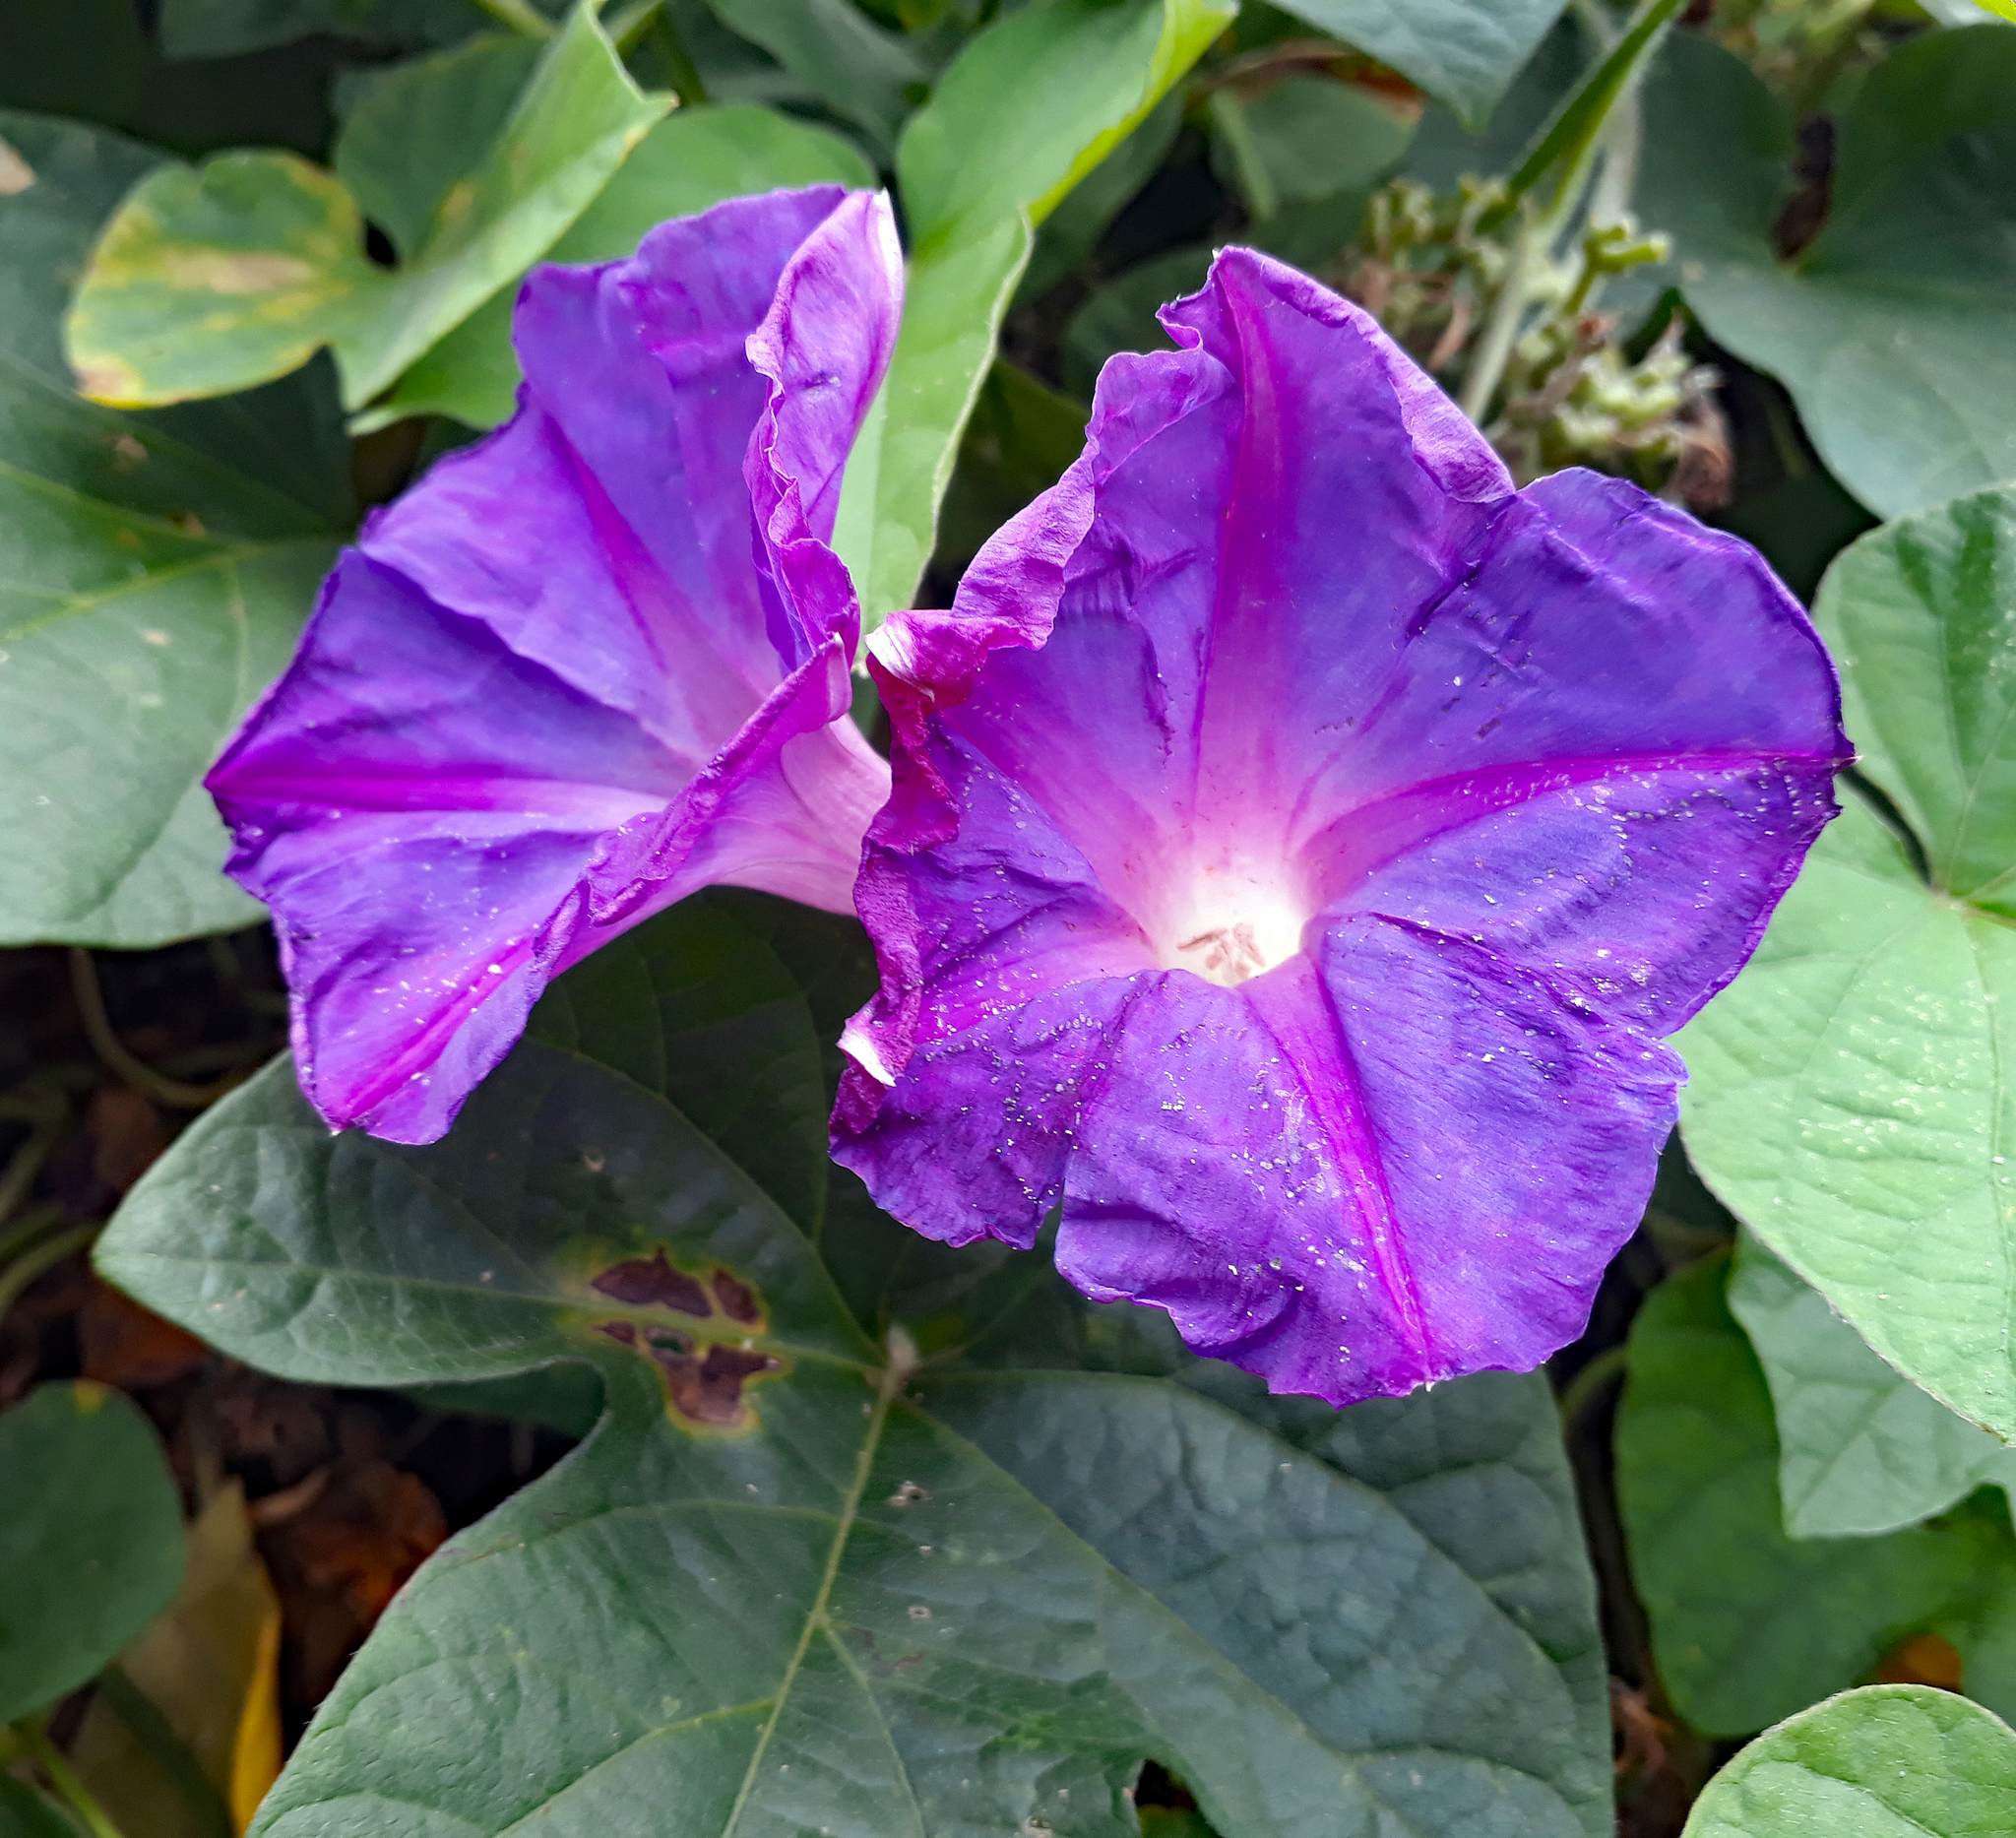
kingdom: Plantae
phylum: Tracheophyta
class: Magnoliopsida
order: Solanales
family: Convolvulaceae
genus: Ipomoea
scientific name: Ipomoea indica
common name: Blue dawnflower
